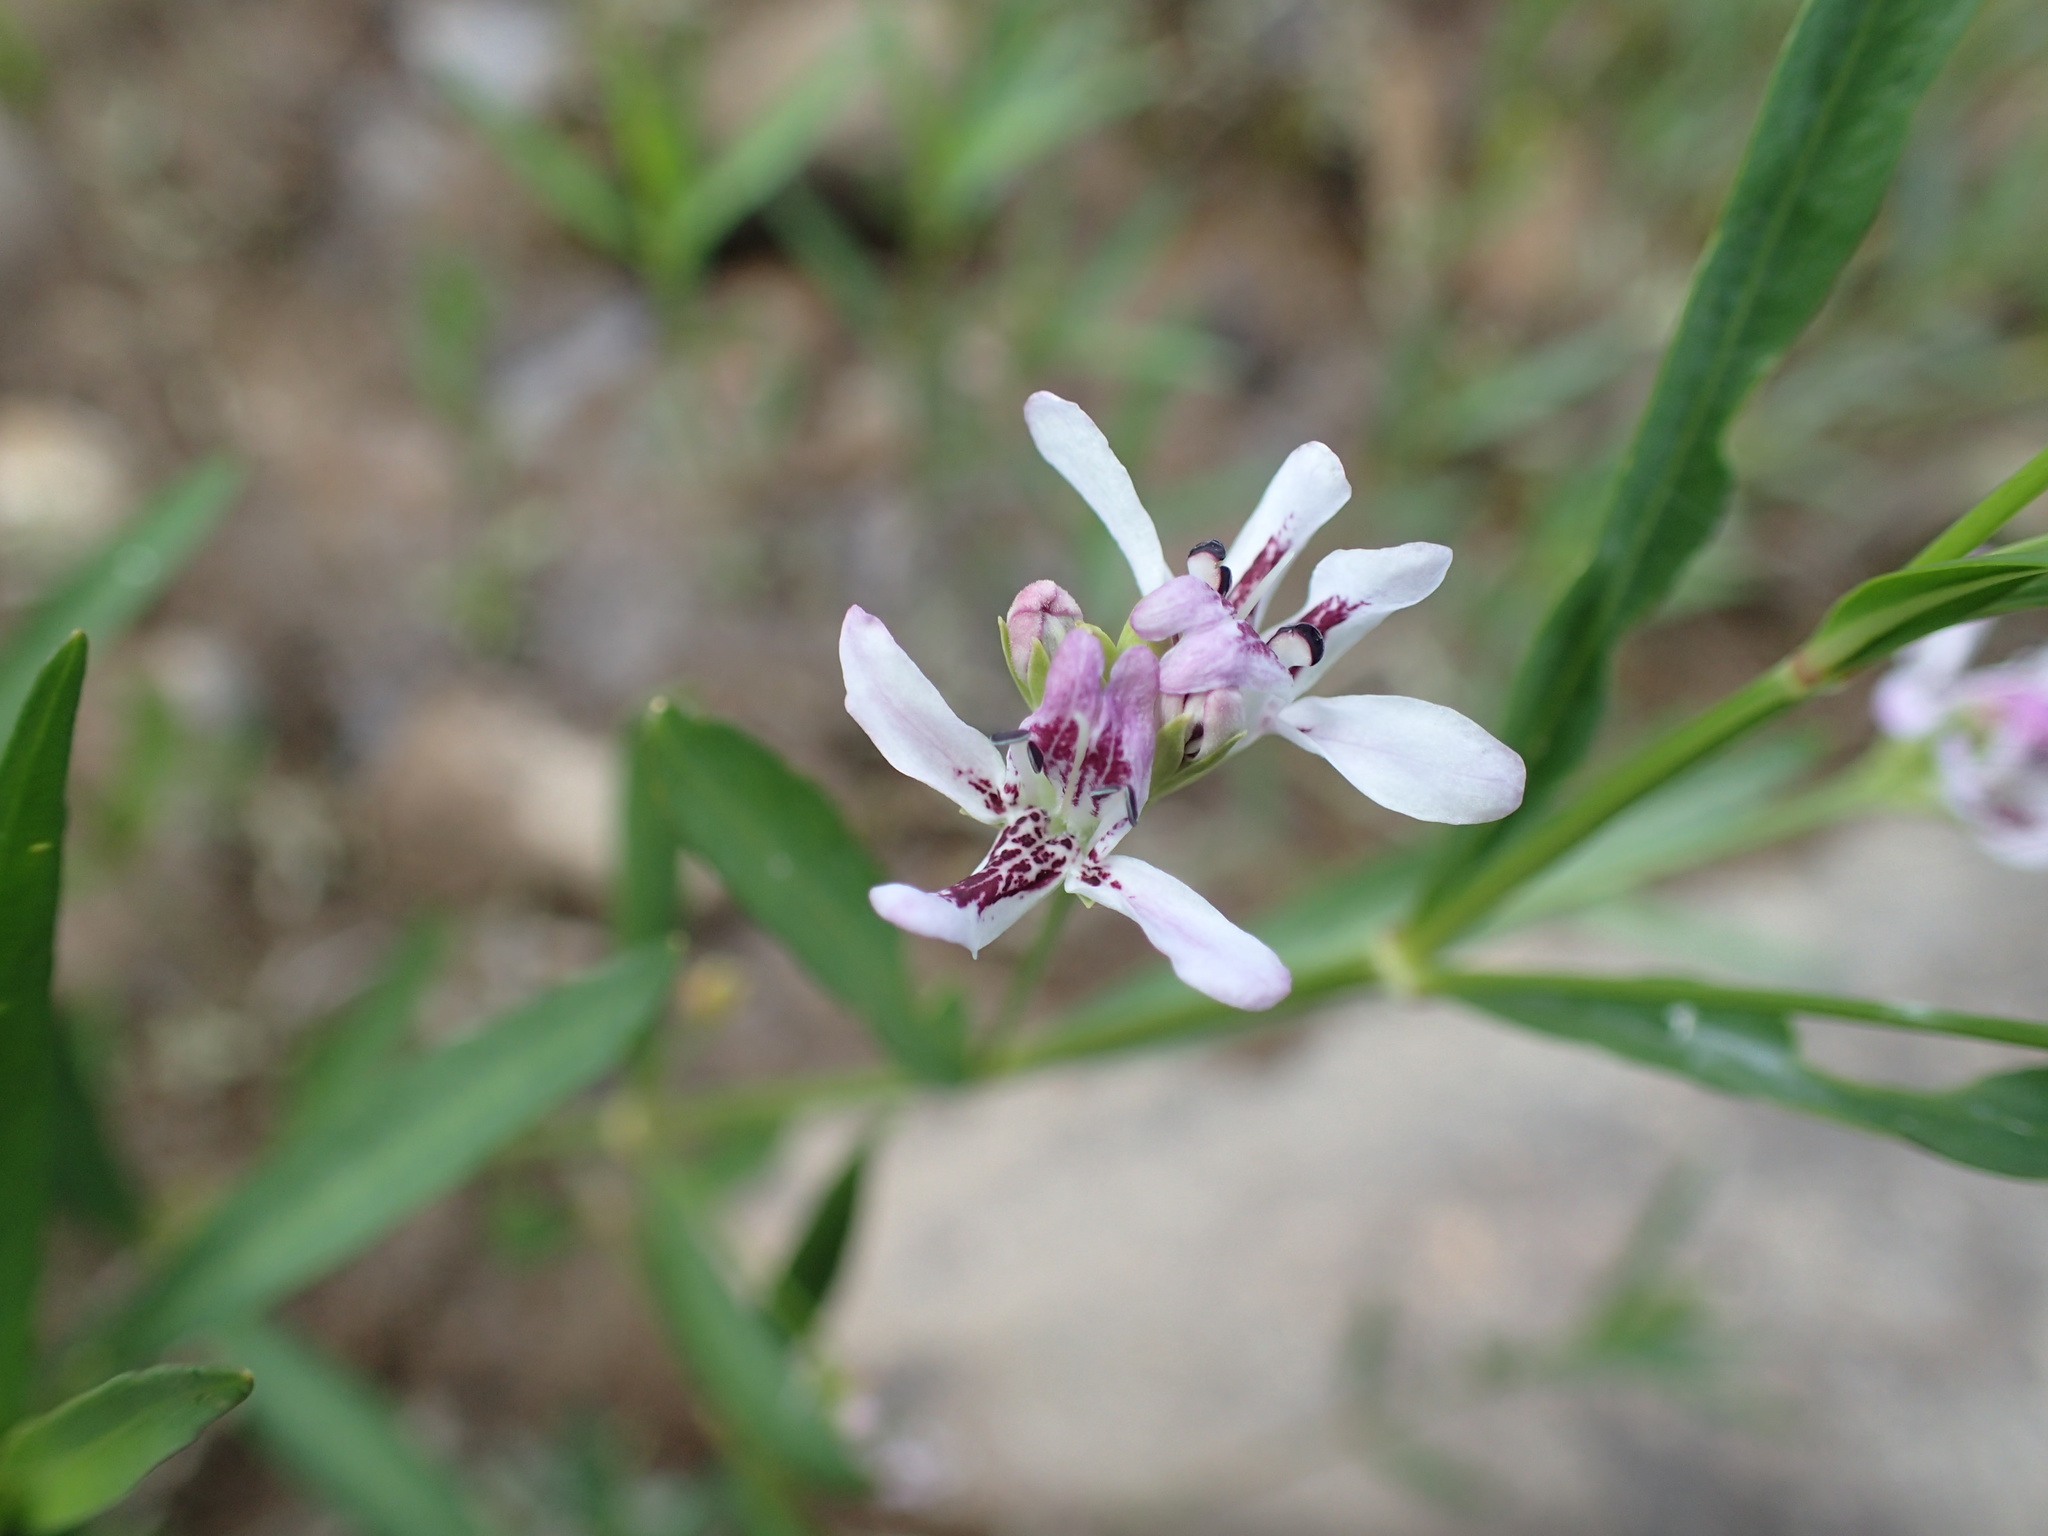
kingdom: Plantae
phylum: Tracheophyta
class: Magnoliopsida
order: Lamiales
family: Acanthaceae
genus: Dianthera
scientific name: Dianthera americana
